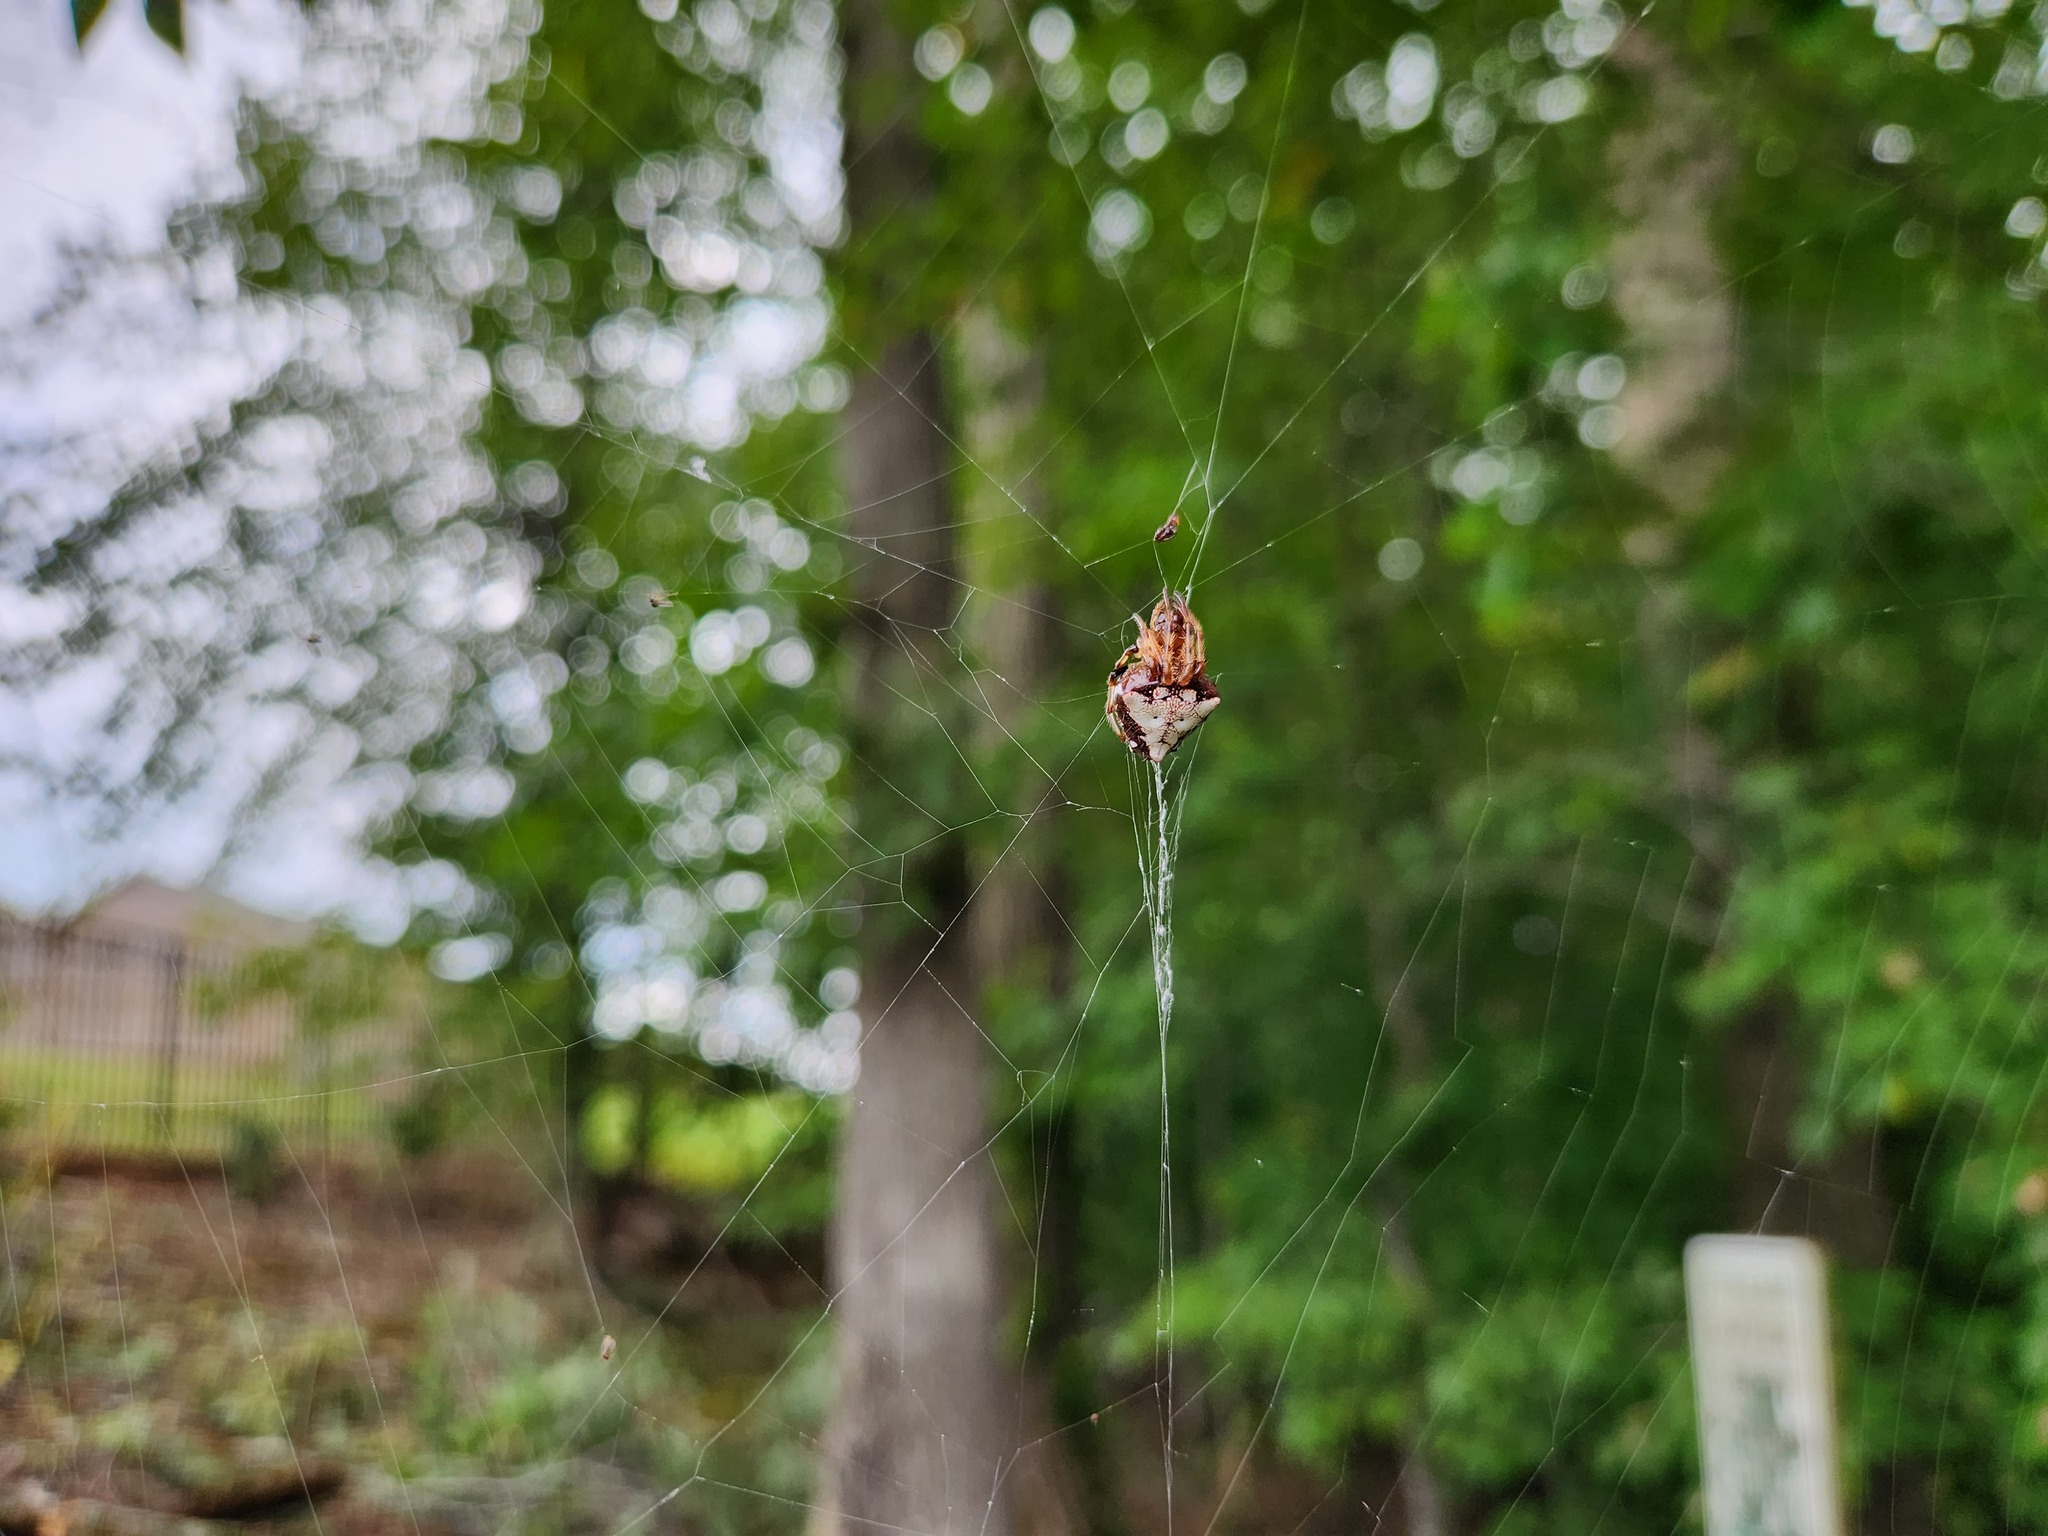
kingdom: Animalia
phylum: Arthropoda
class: Arachnida
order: Araneae
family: Araneidae
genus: Verrucosa
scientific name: Verrucosa arenata
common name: Orb weavers
